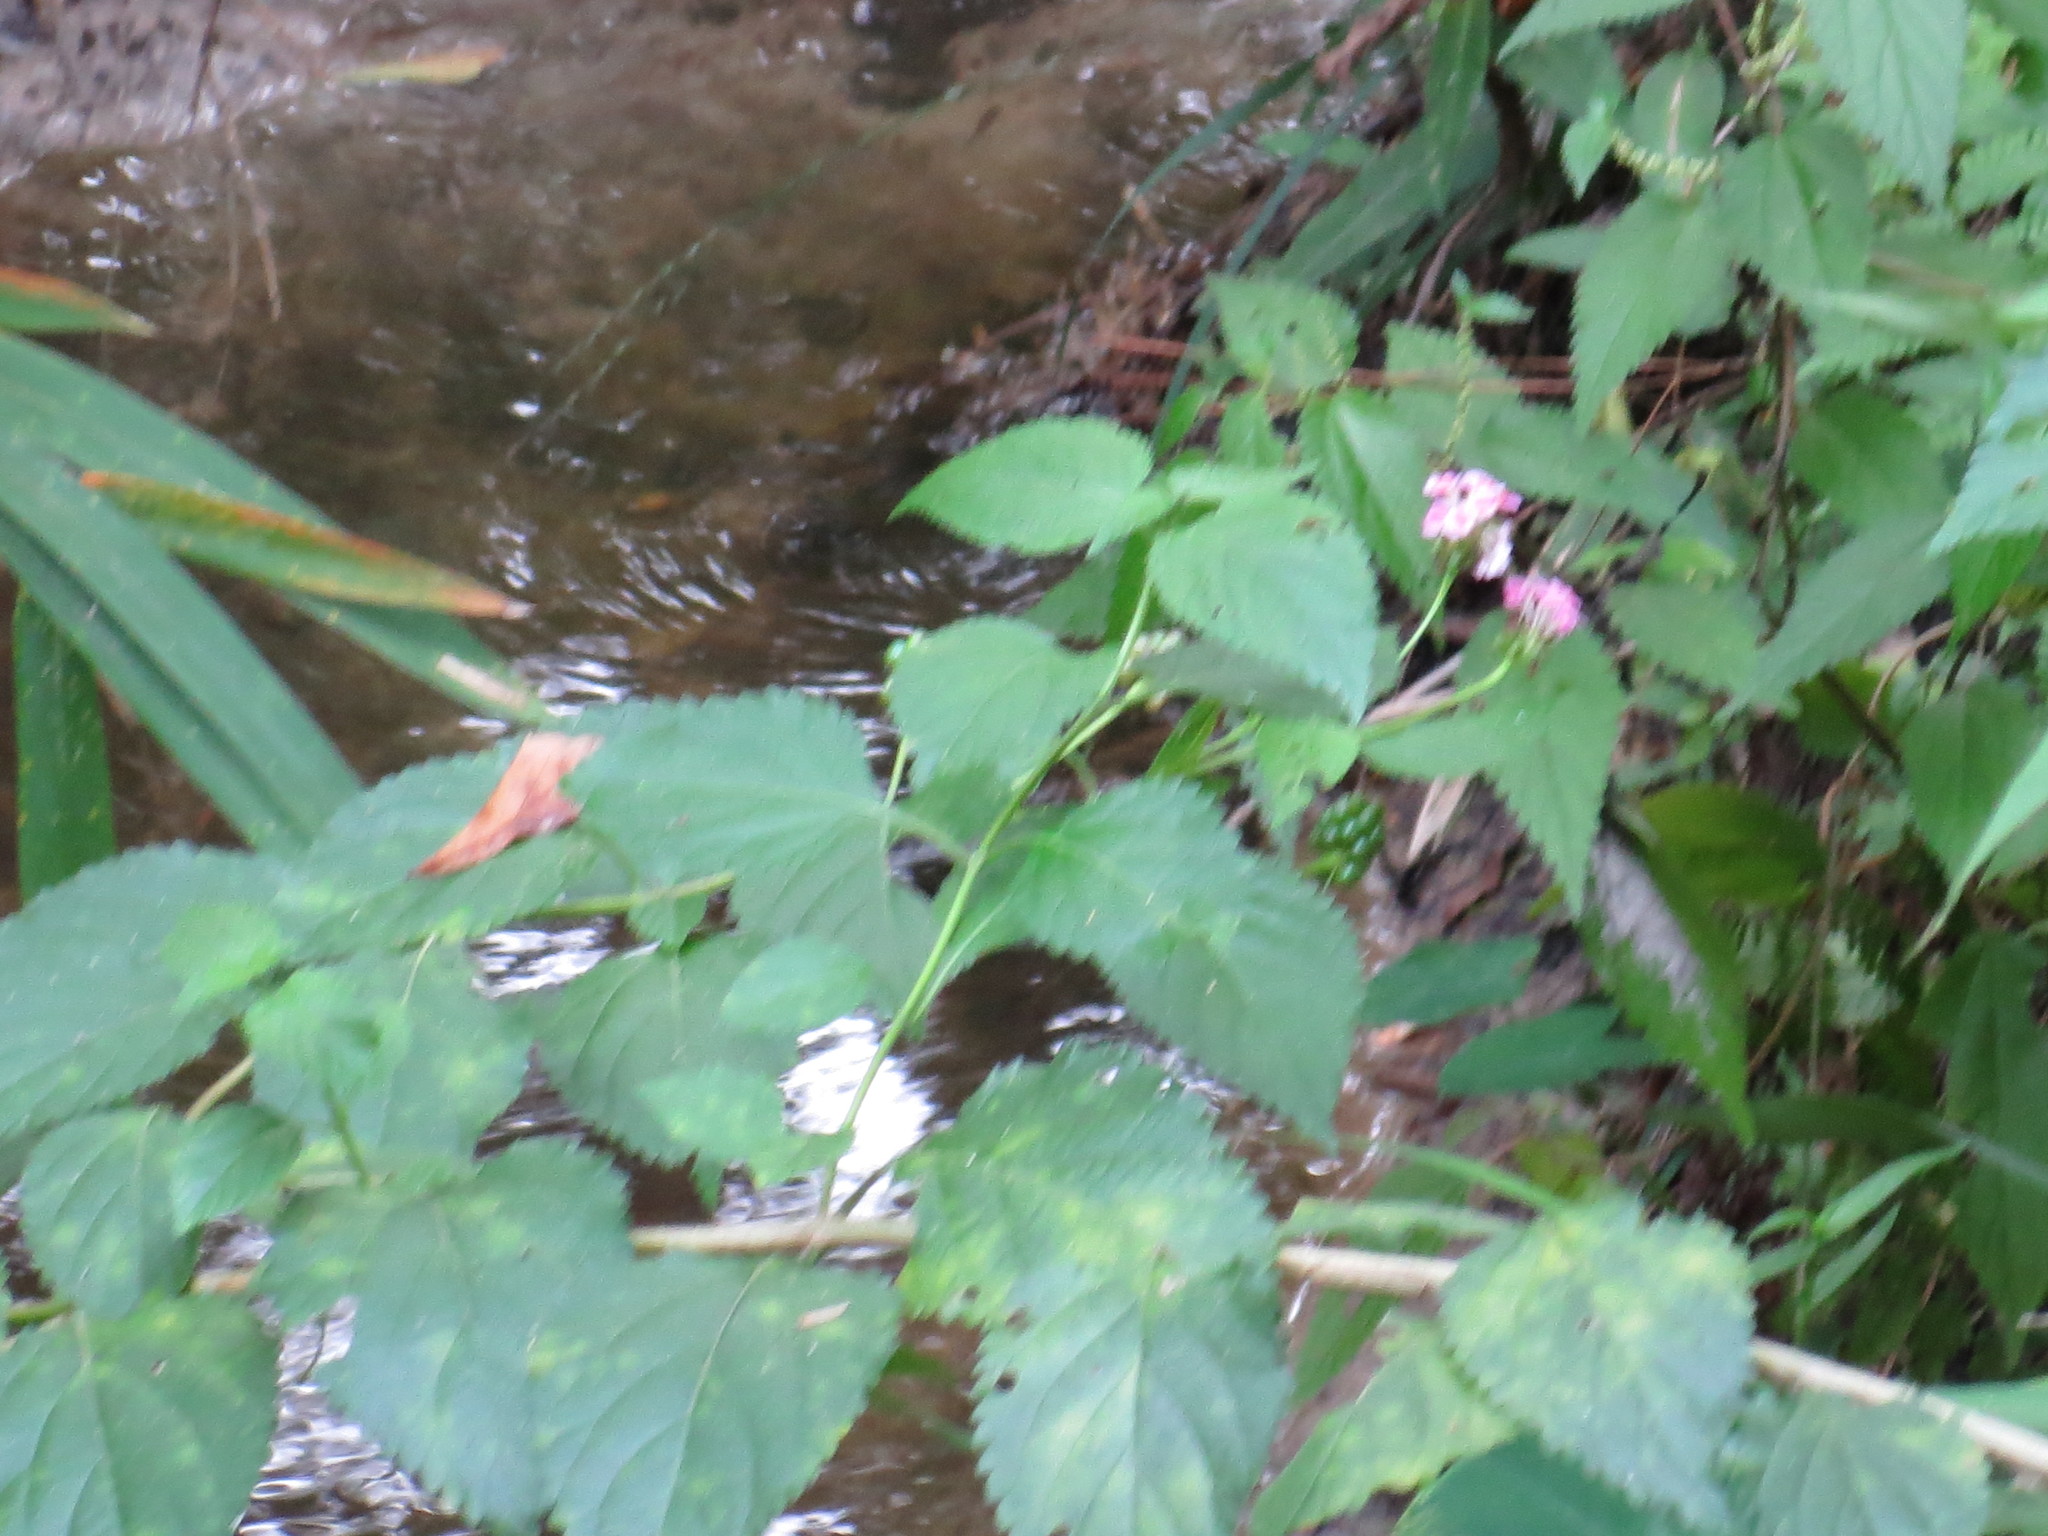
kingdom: Plantae
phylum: Tracheophyta
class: Magnoliopsida
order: Lamiales
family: Verbenaceae
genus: Lantana
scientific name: Lantana strigocamara
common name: Lantana
